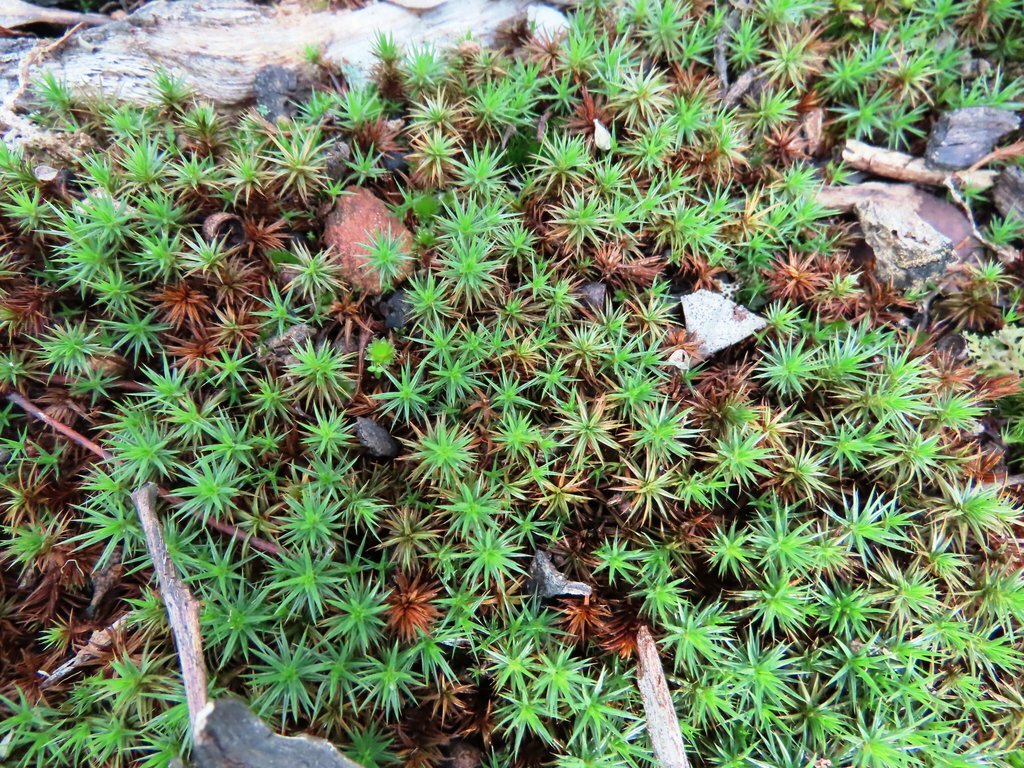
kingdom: Plantae
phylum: Bryophyta
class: Polytrichopsida
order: Polytrichales
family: Polytrichaceae
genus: Polytrichum
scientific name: Polytrichum juniperinum
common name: Juniper haircap moss
